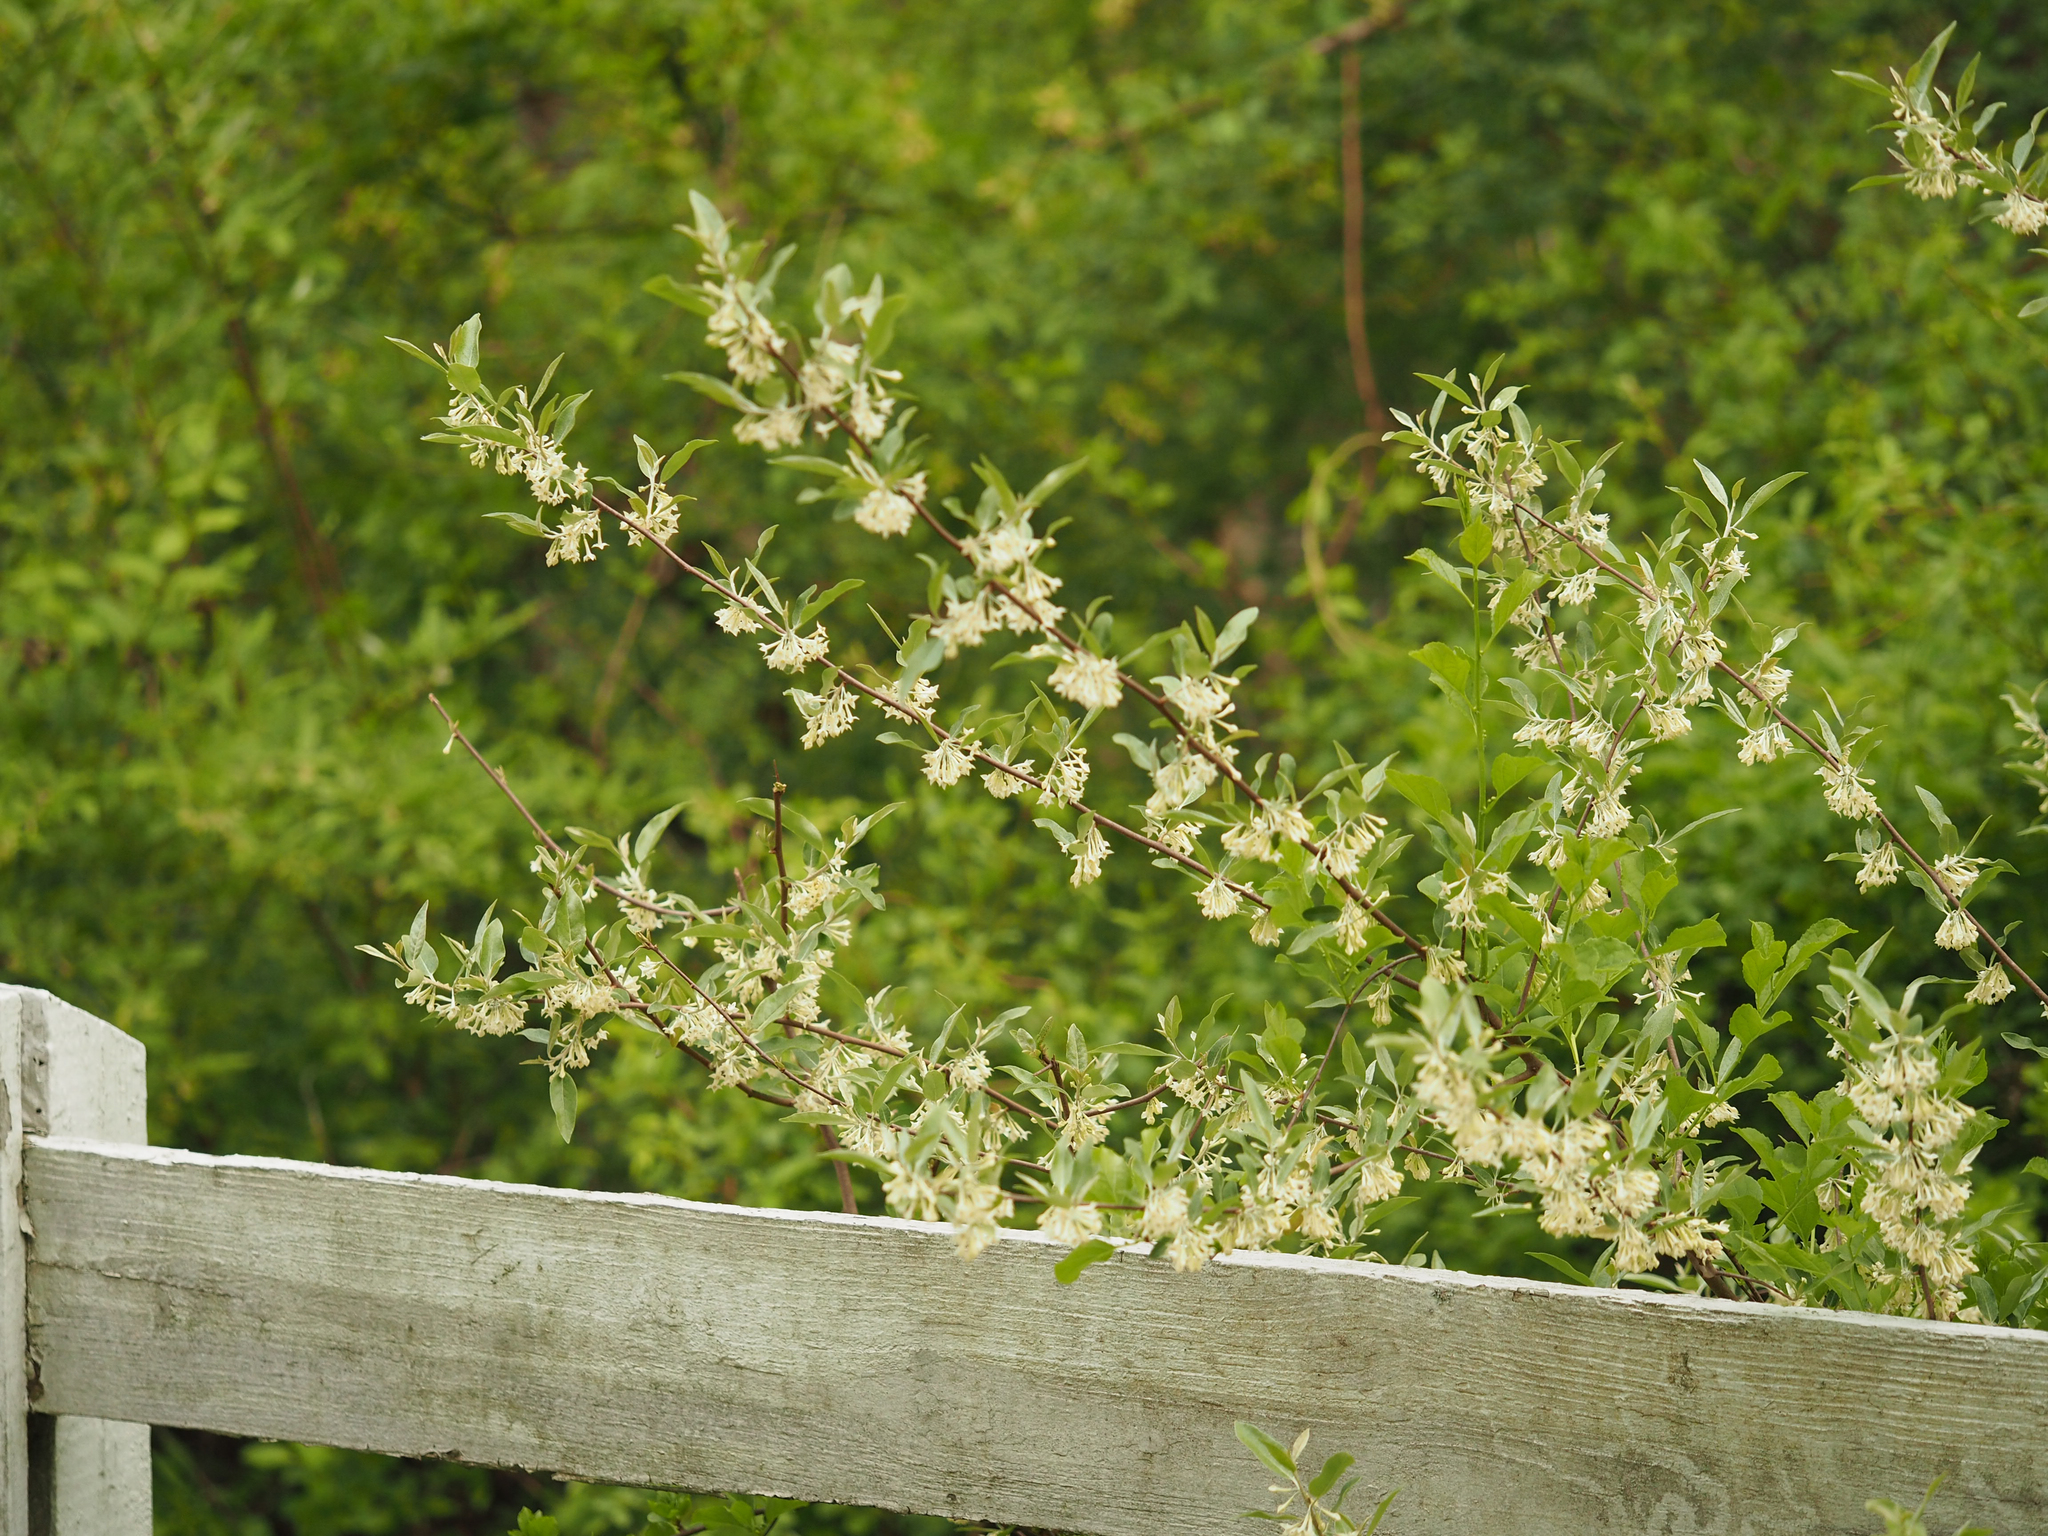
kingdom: Plantae
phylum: Tracheophyta
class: Magnoliopsida
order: Rosales
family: Elaeagnaceae
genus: Elaeagnus
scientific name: Elaeagnus umbellata
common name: Autumn olive
